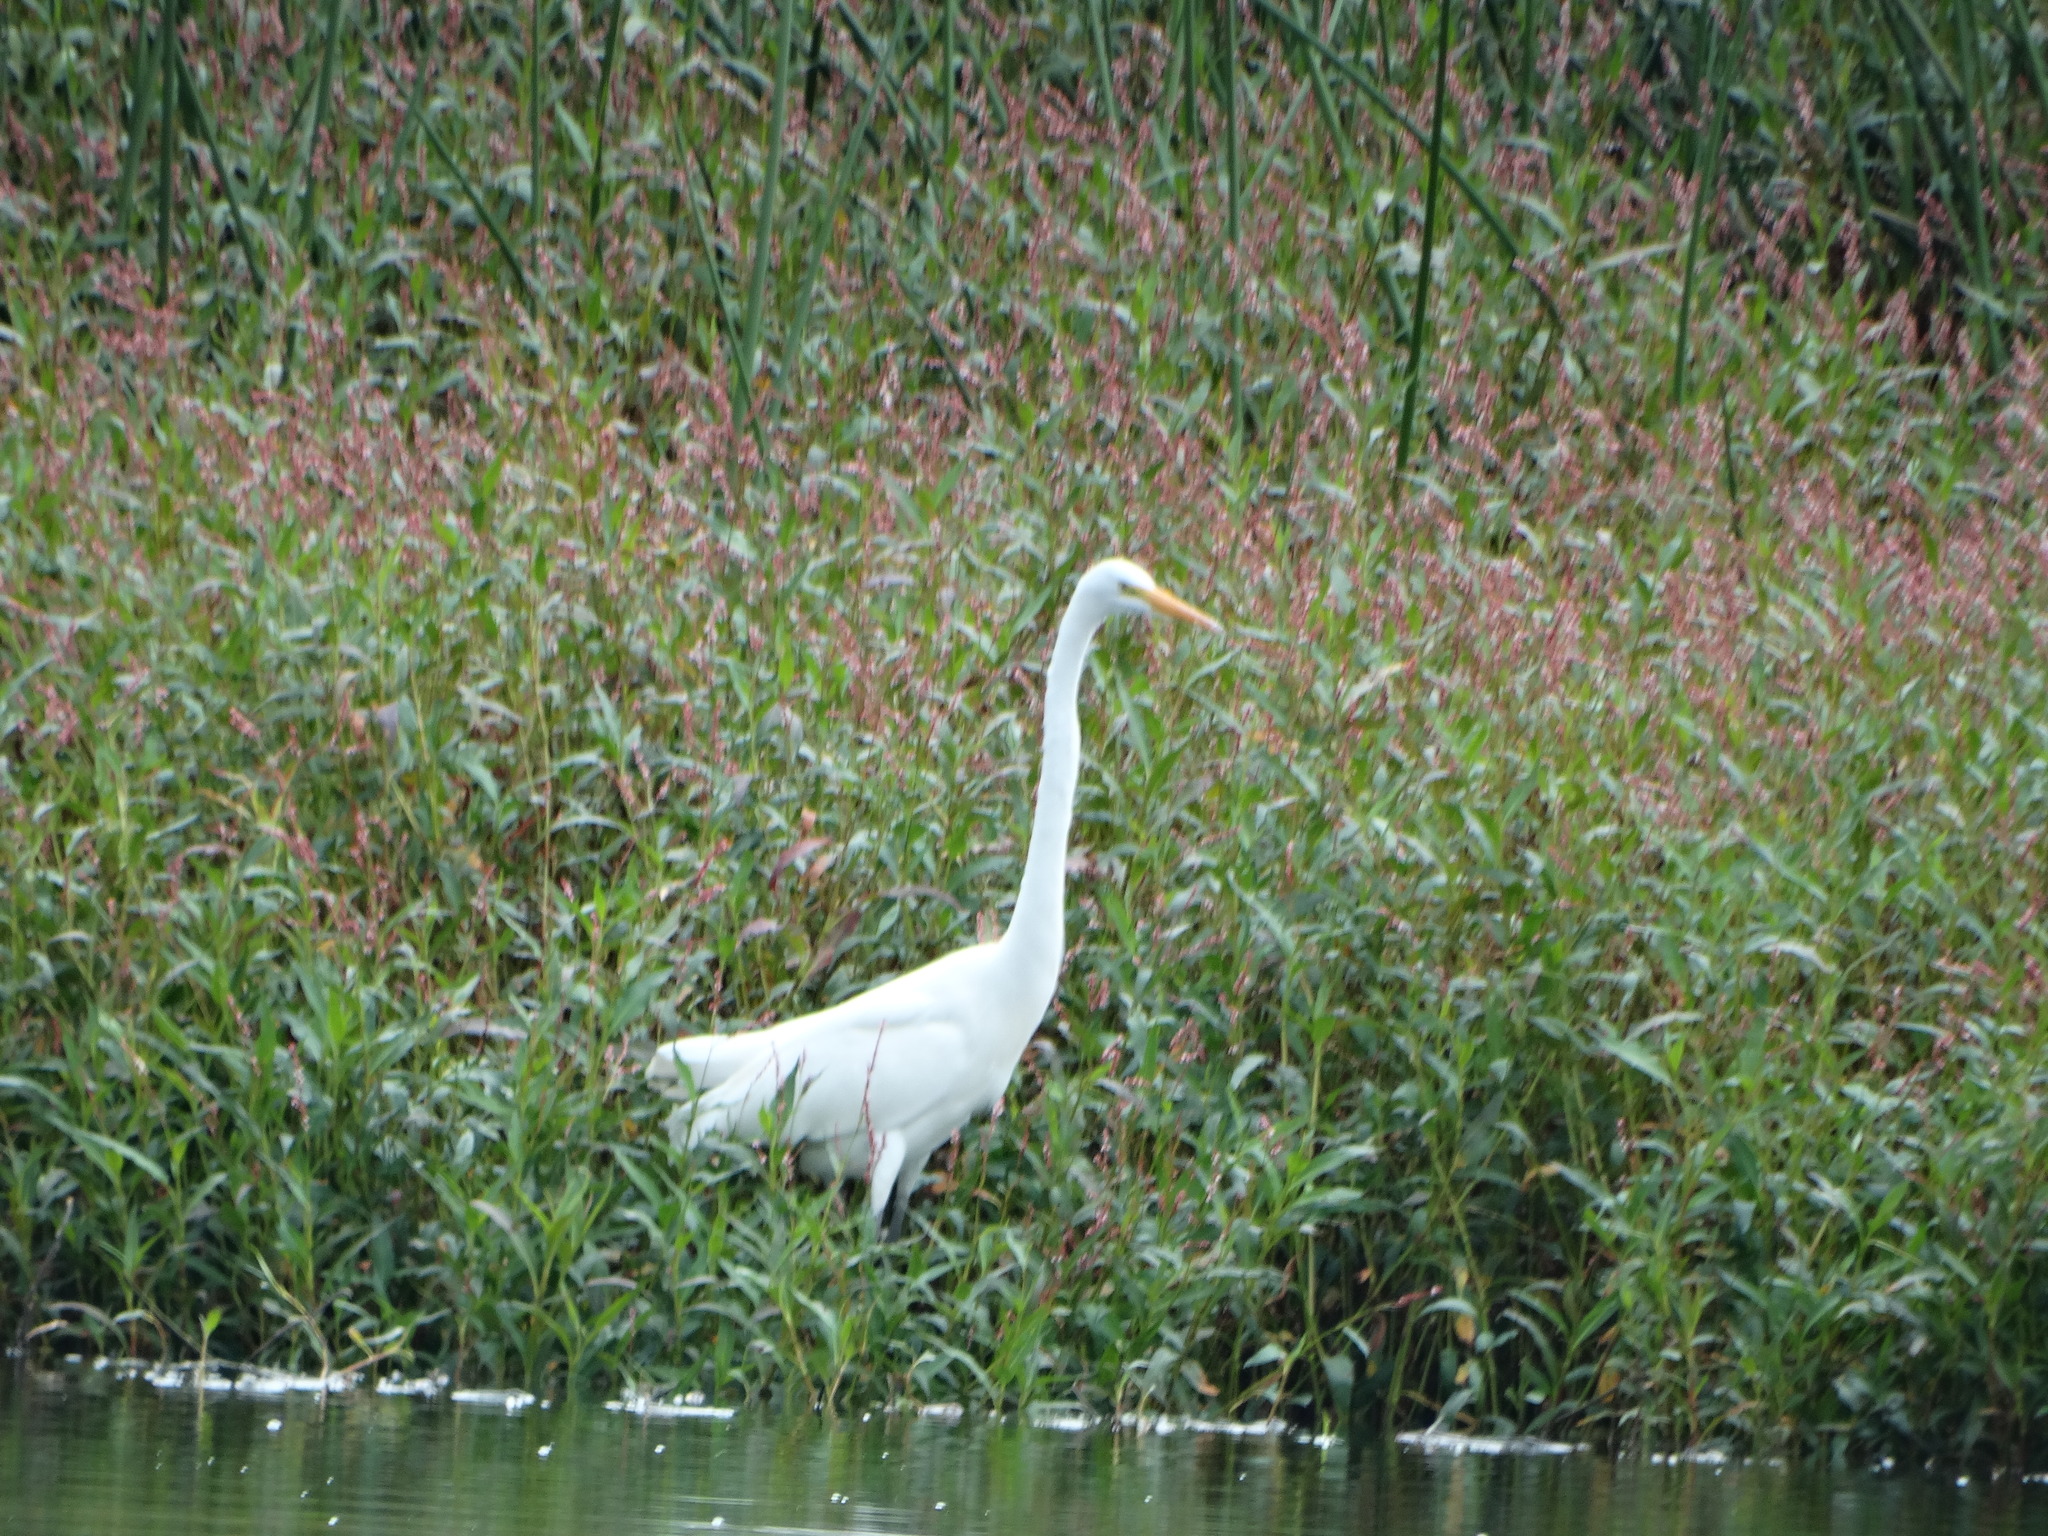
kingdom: Animalia
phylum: Chordata
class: Aves
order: Pelecaniformes
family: Ardeidae
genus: Ardea
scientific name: Ardea alba
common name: Great egret
